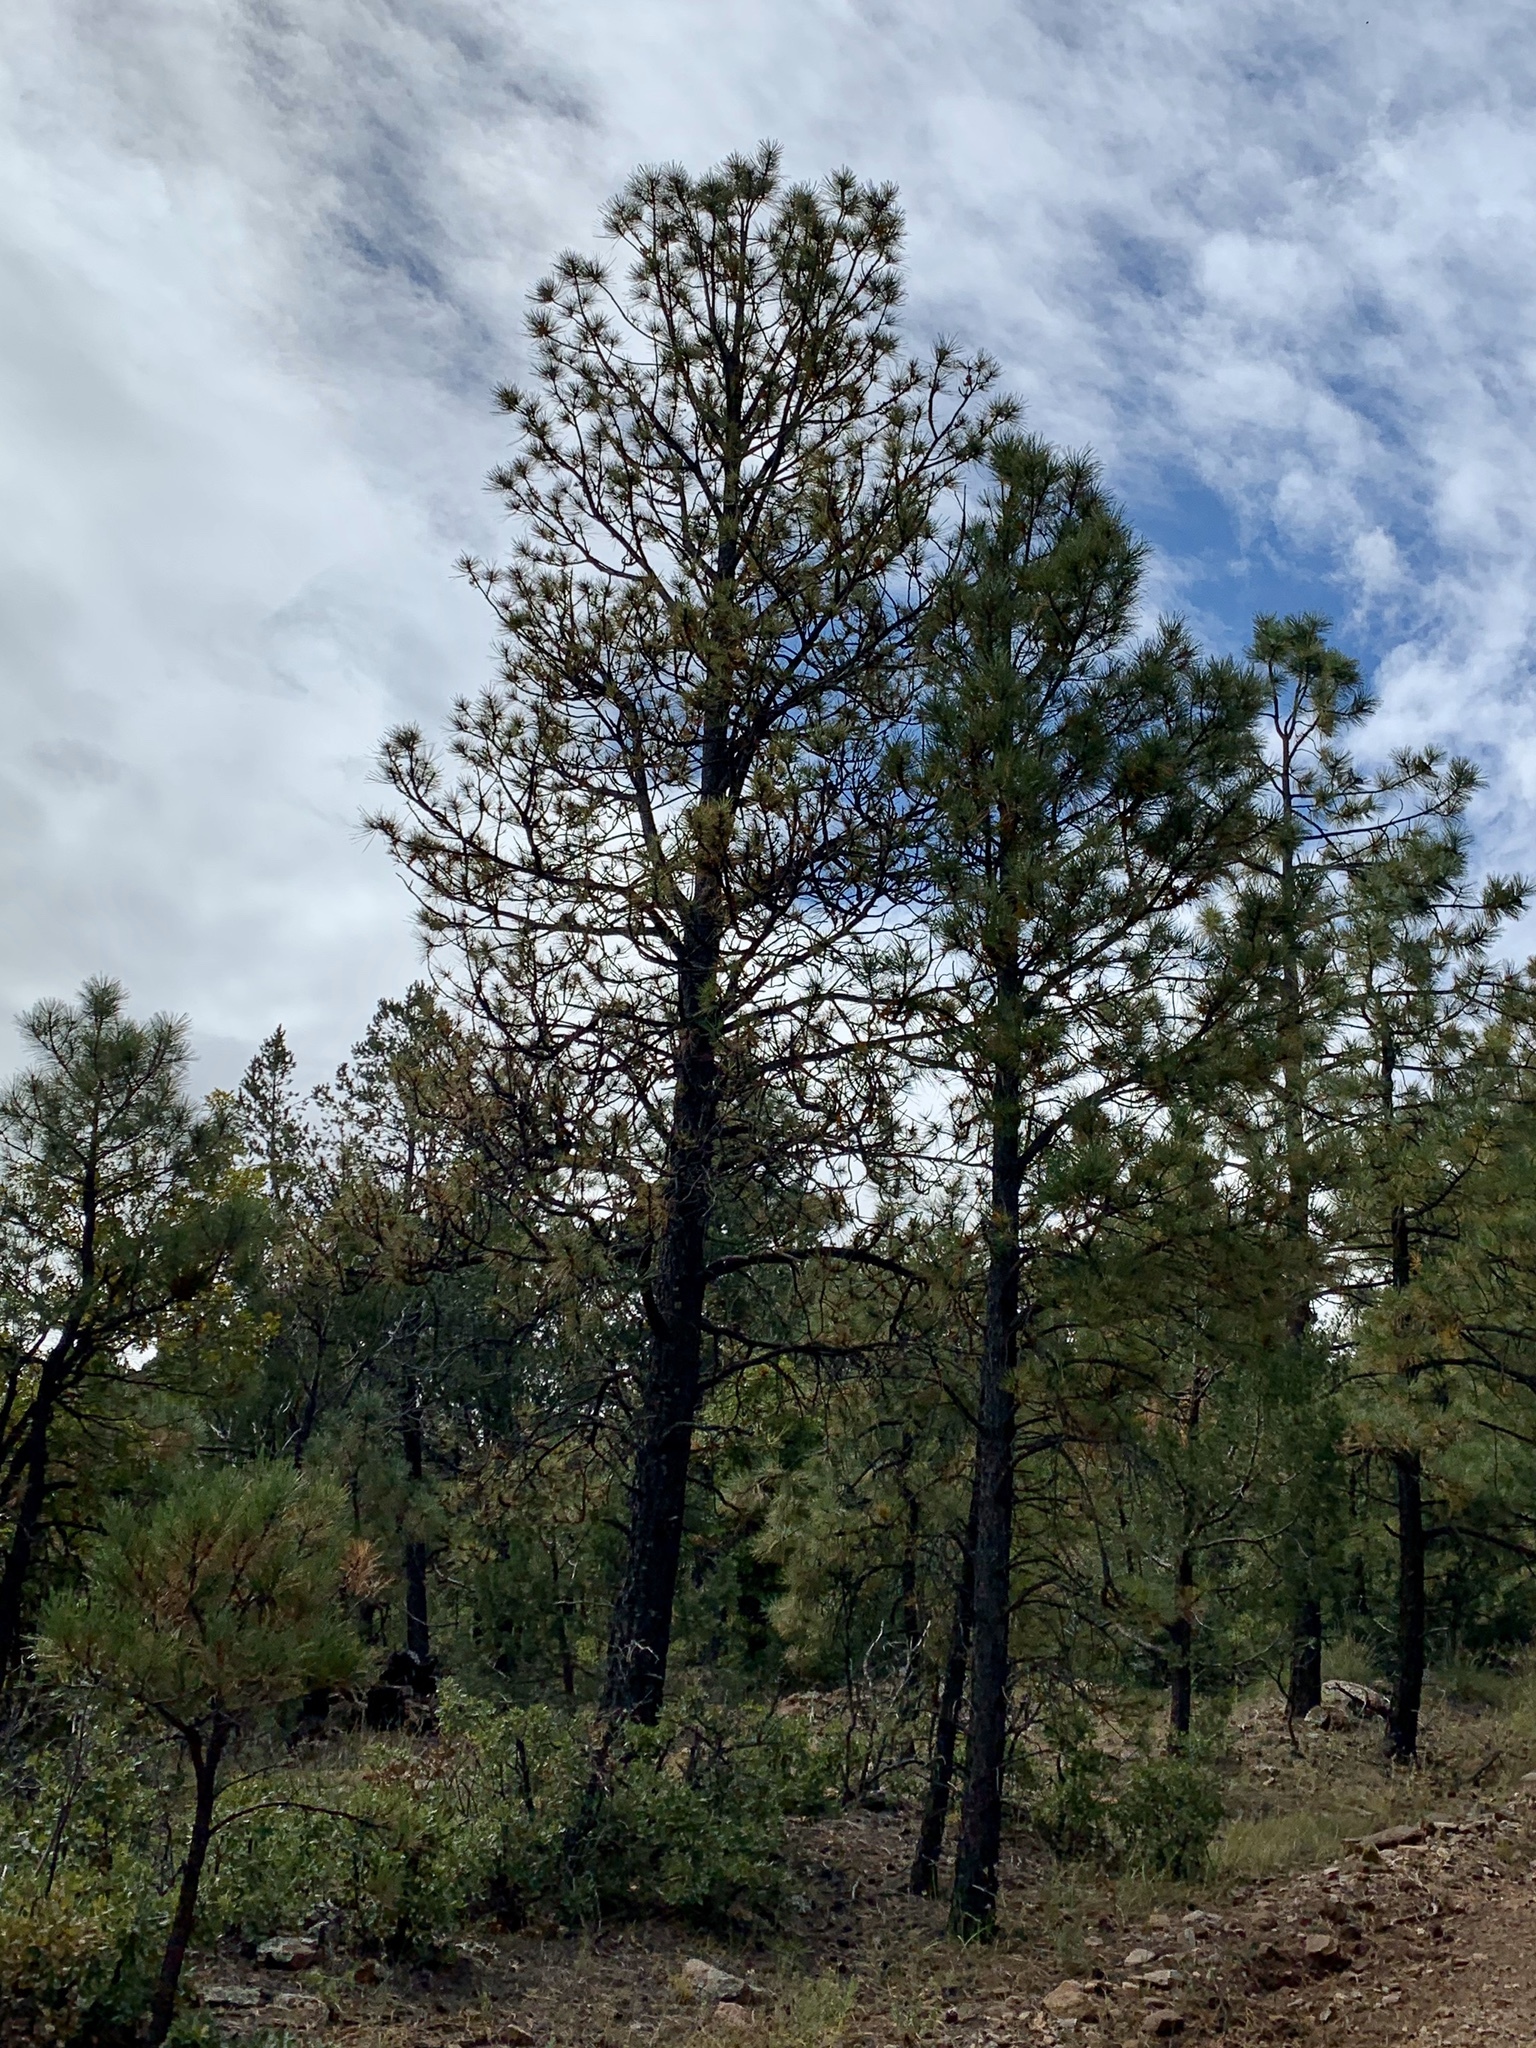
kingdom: Plantae
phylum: Tracheophyta
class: Pinopsida
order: Pinales
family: Pinaceae
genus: Pinus
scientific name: Pinus ponderosa
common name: Western yellow-pine
